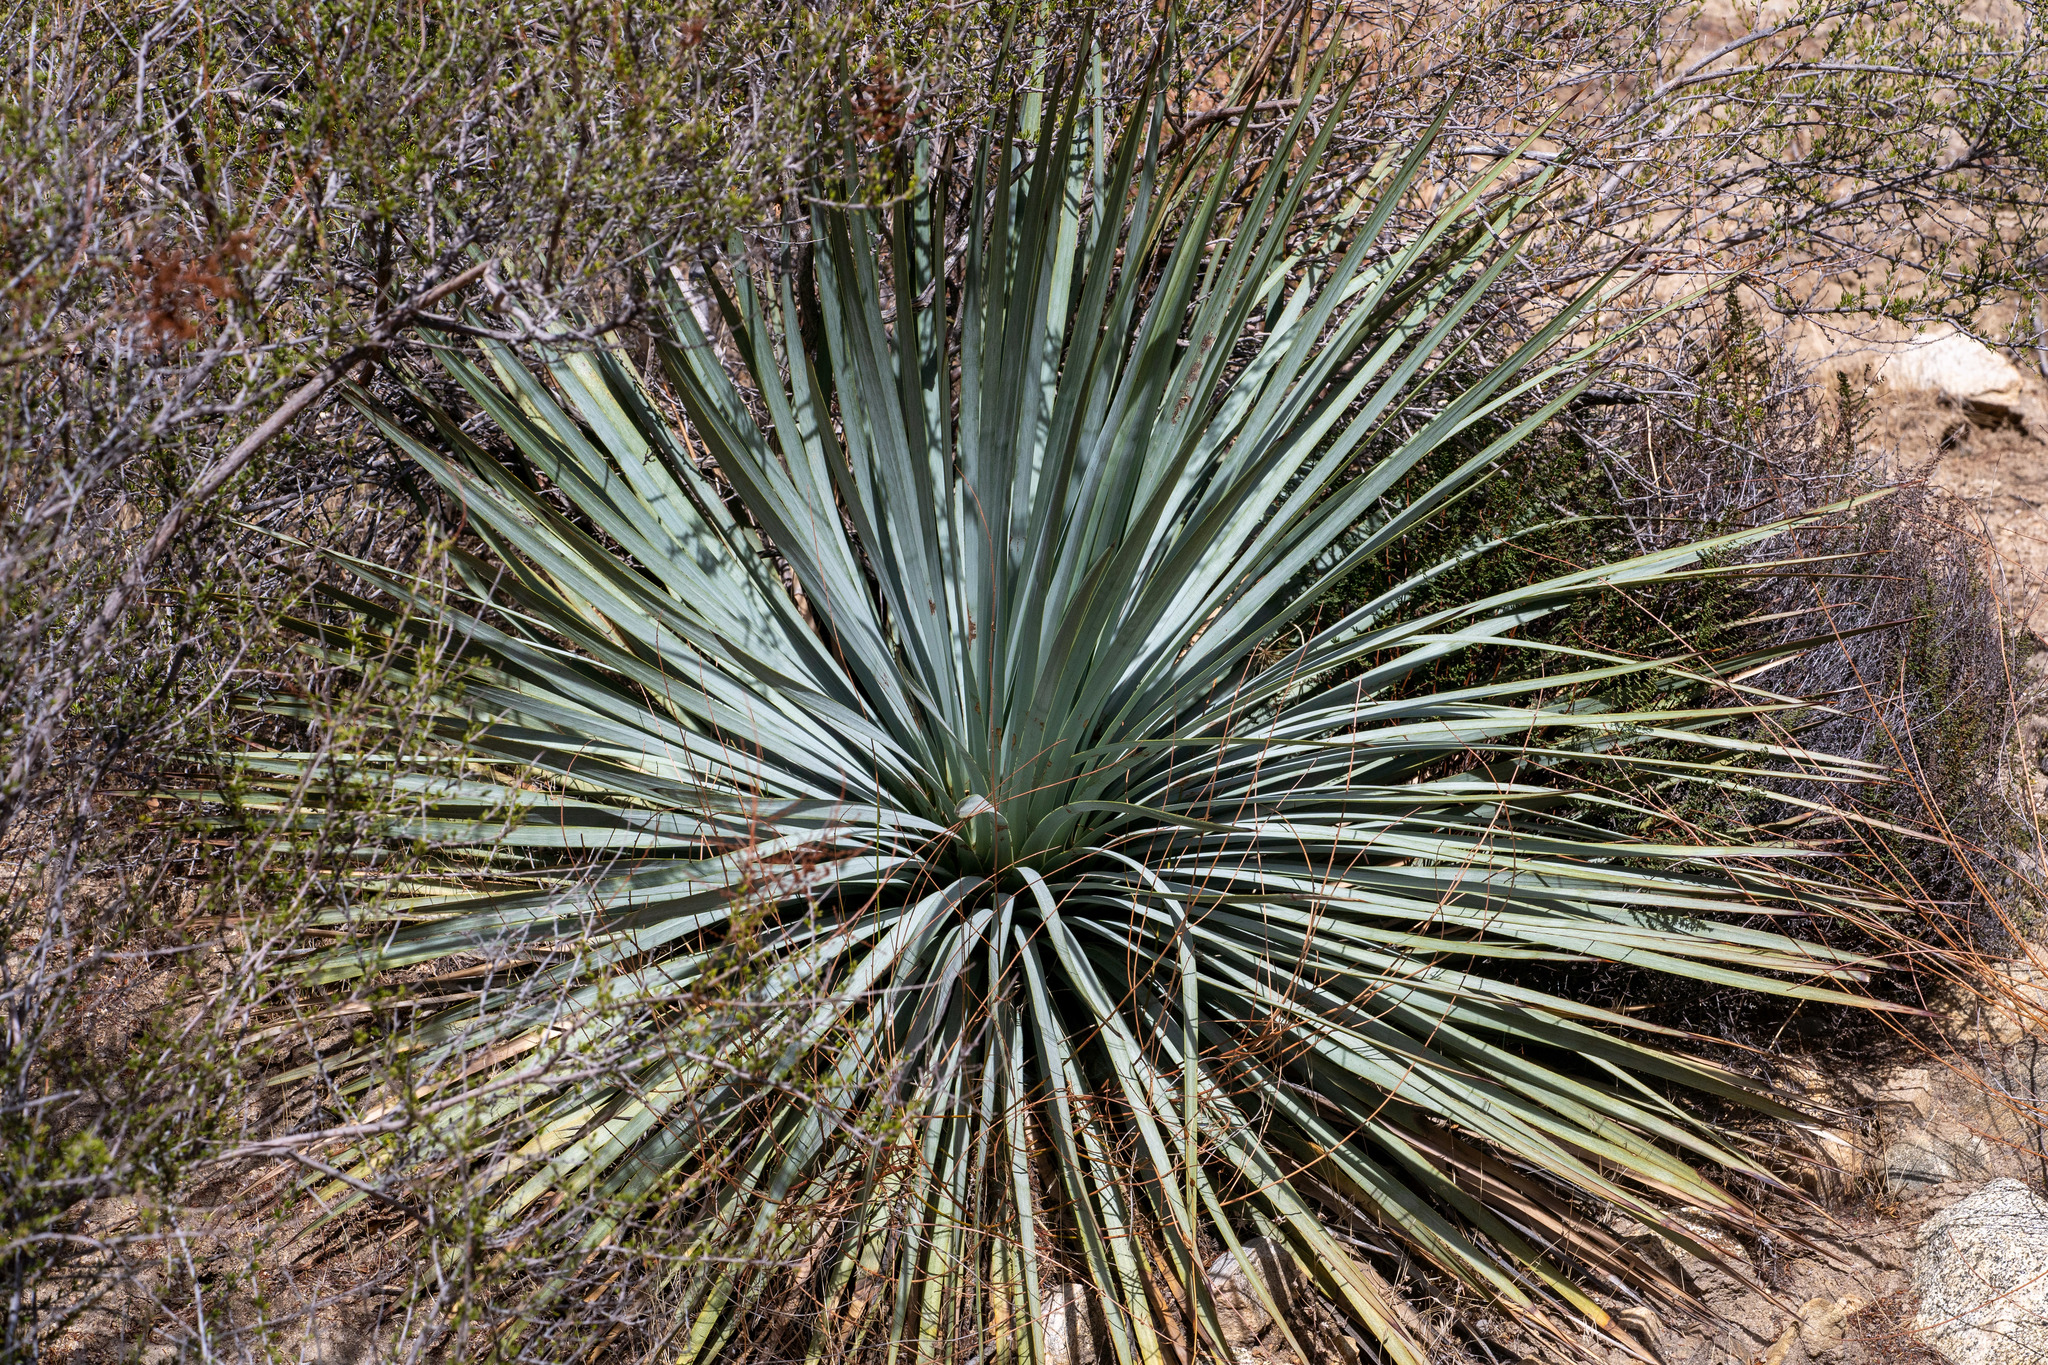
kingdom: Plantae
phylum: Tracheophyta
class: Liliopsida
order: Asparagales
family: Asparagaceae
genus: Hesperoyucca
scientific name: Hesperoyucca whipplei
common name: Our lord's-candle
